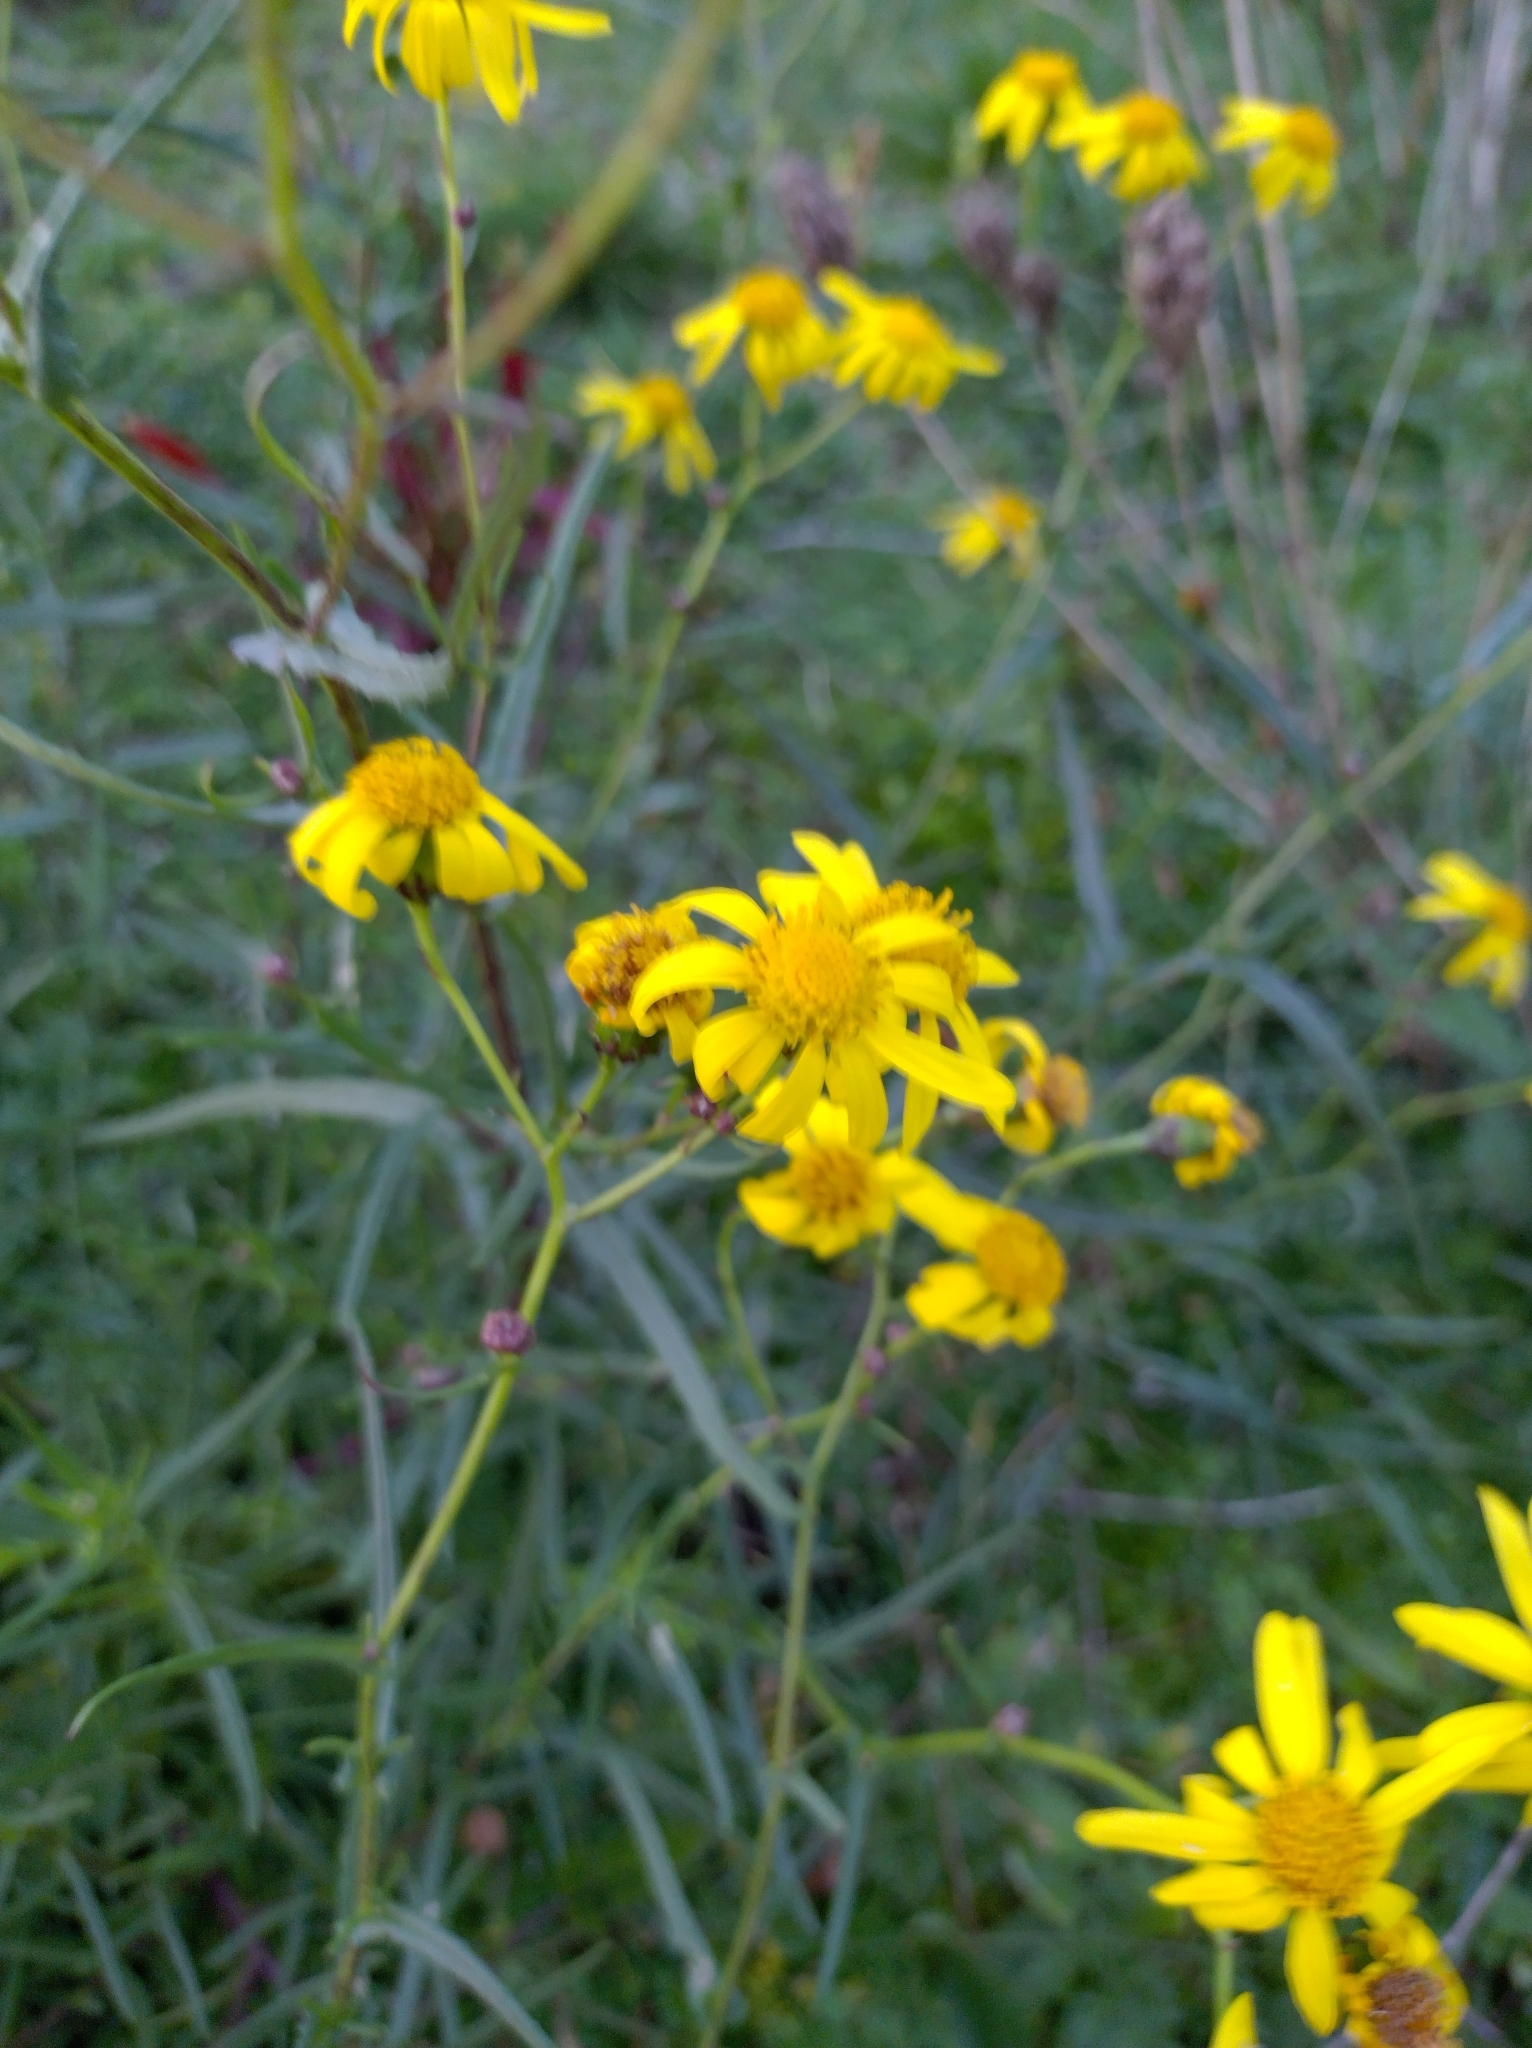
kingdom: Plantae
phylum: Tracheophyta
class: Magnoliopsida
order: Asterales
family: Asteraceae
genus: Senecio
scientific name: Senecio inaequidens
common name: Narrow-leaved ragwort
